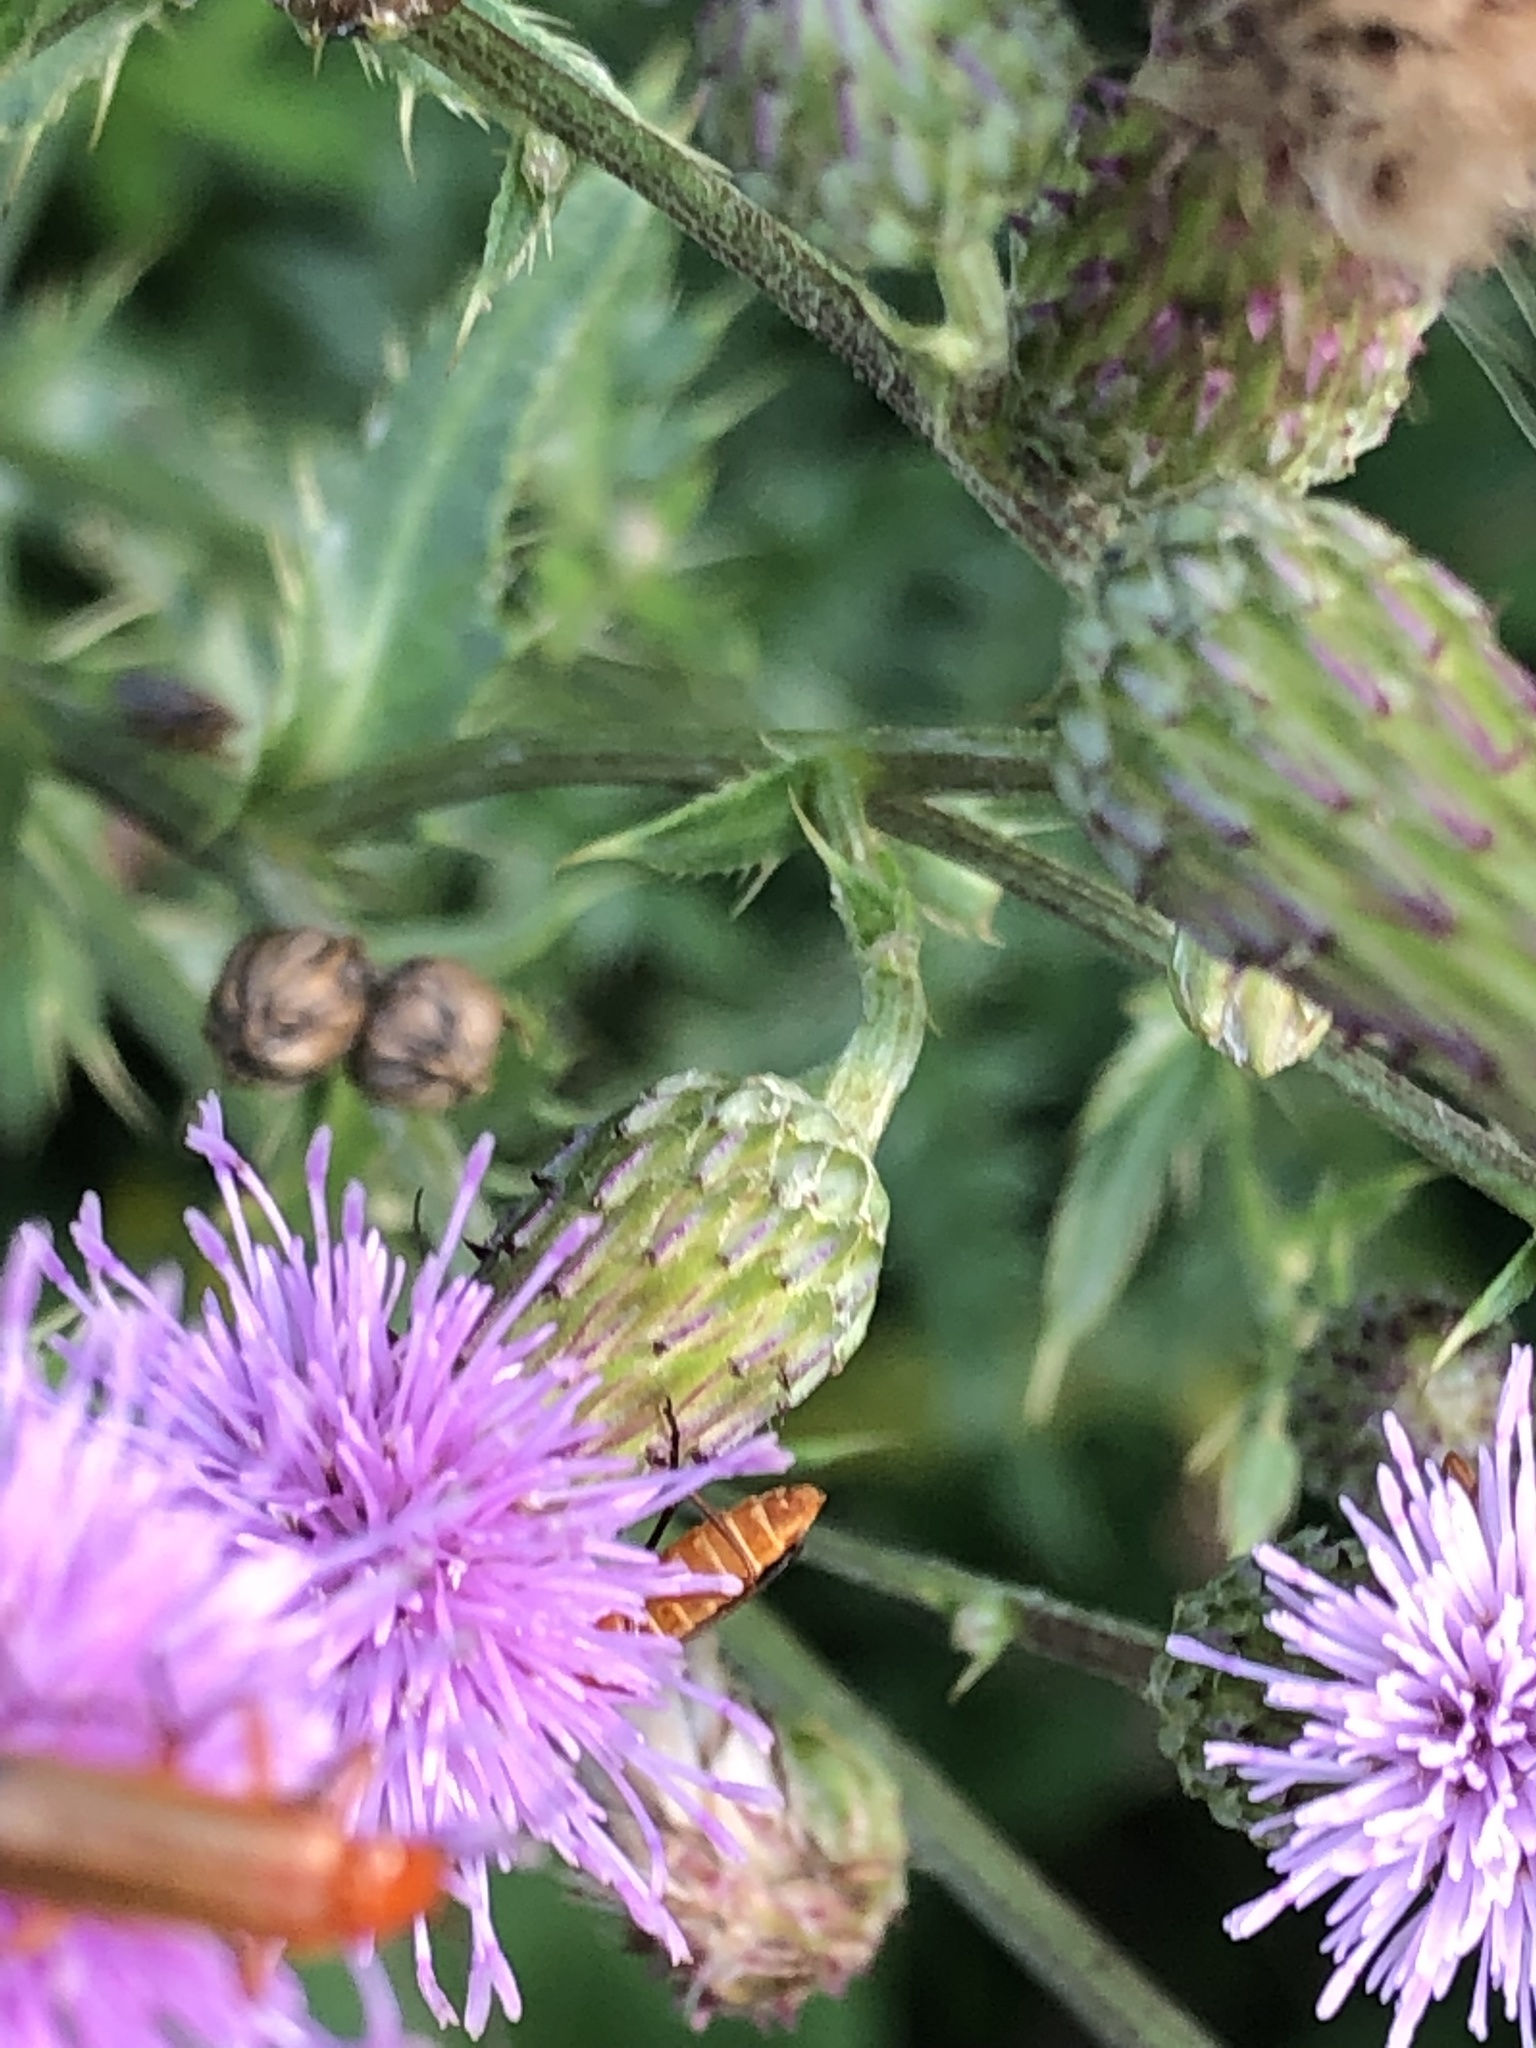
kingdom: Animalia
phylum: Arthropoda
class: Insecta
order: Coleoptera
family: Cantharidae
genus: Rhagonycha
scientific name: Rhagonycha fulva
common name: Common red soldier beetle
